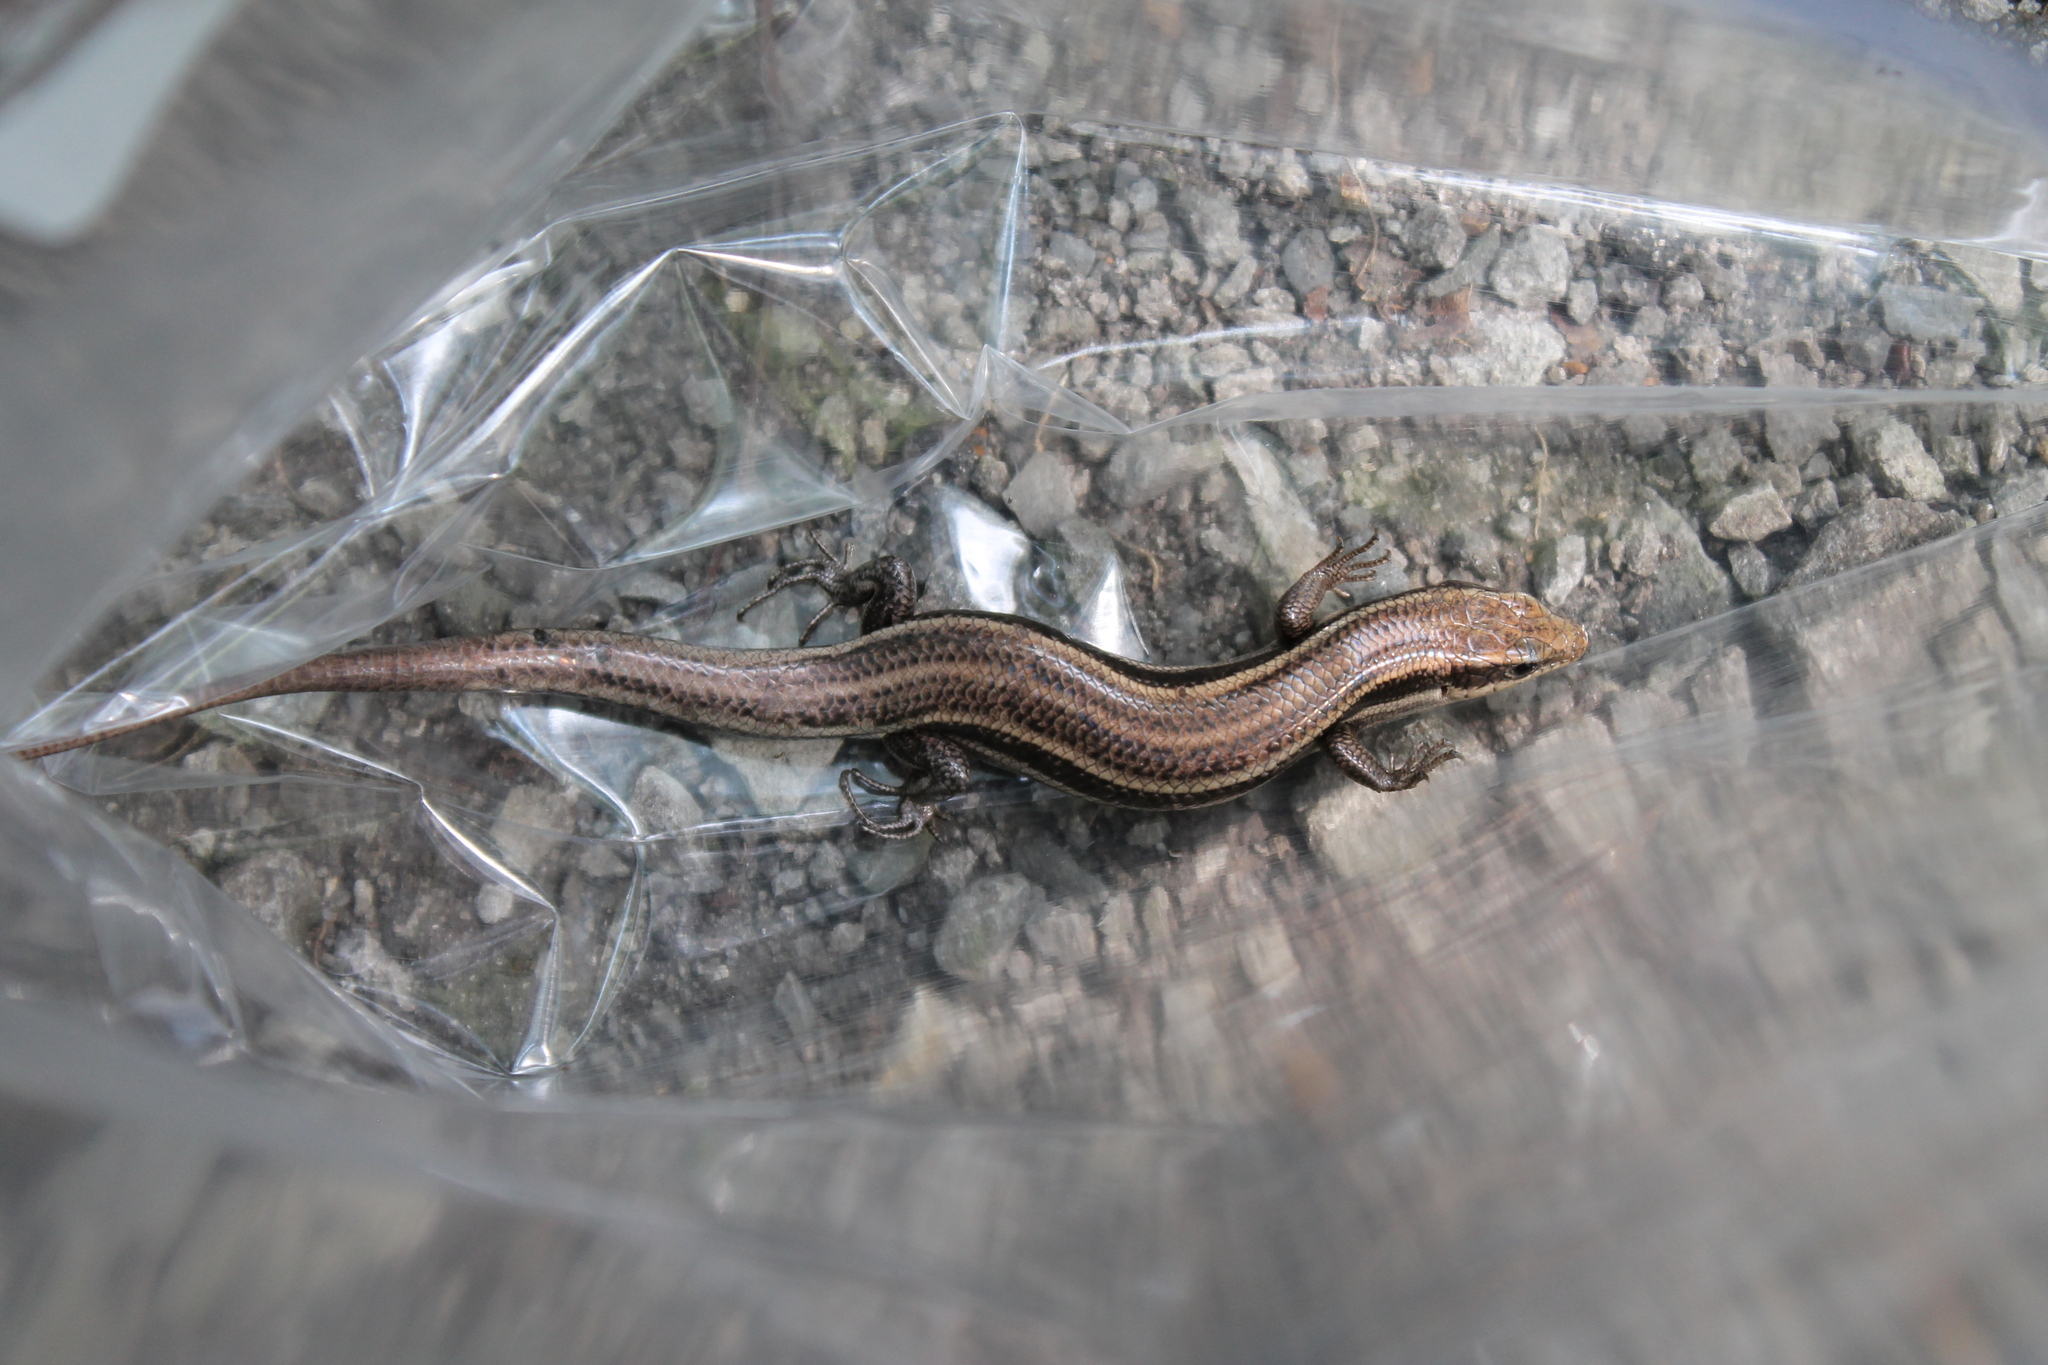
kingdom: Animalia
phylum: Chordata
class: Squamata
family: Scincidae
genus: Plestiodon
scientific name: Plestiodon fasciatus
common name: Five-lined skink
